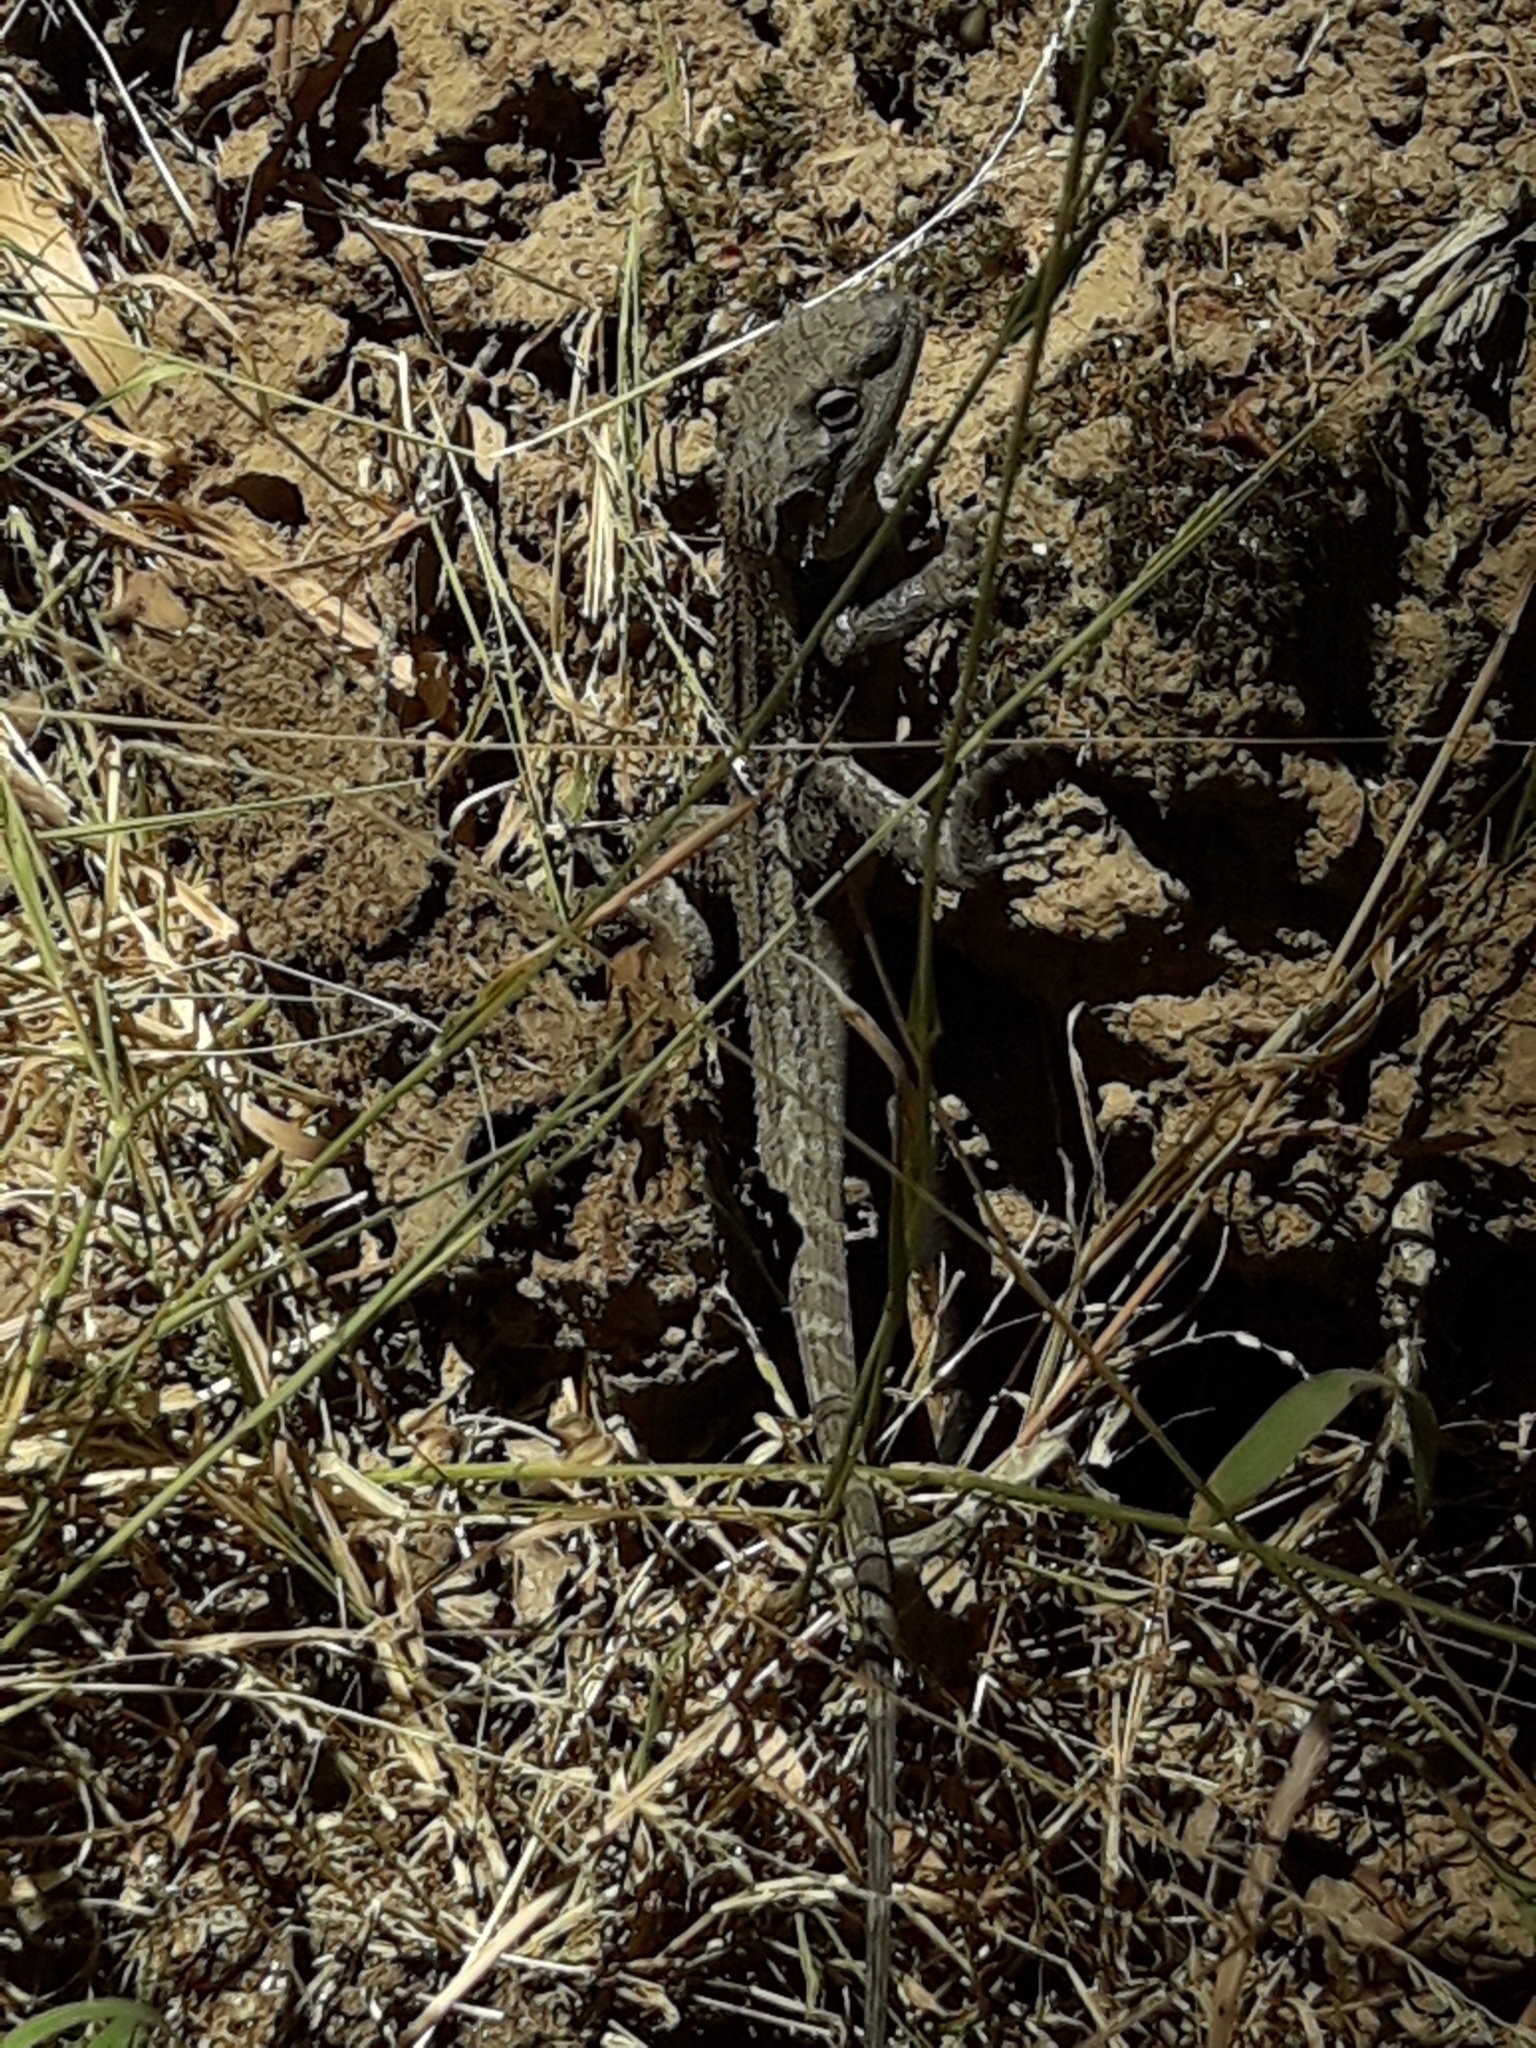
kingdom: Animalia
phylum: Chordata
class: Squamata
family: Agamidae
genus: Amphibolurus
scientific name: Amphibolurus muricatus
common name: Jacky lizard
